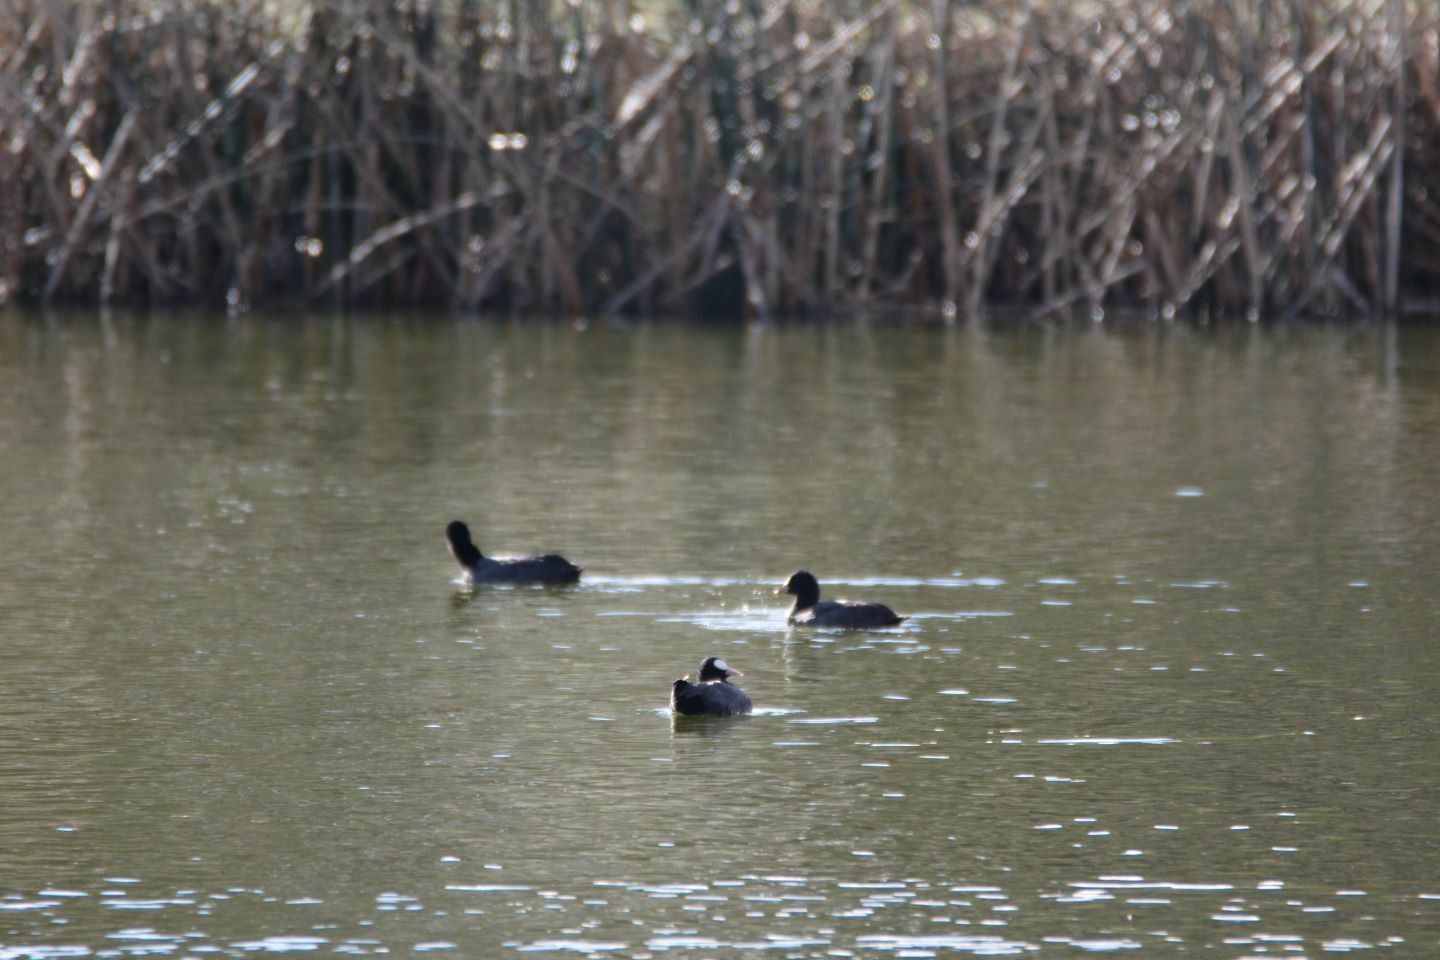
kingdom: Animalia
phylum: Chordata
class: Aves
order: Gruiformes
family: Rallidae
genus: Fulica
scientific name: Fulica atra
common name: Eurasian coot
